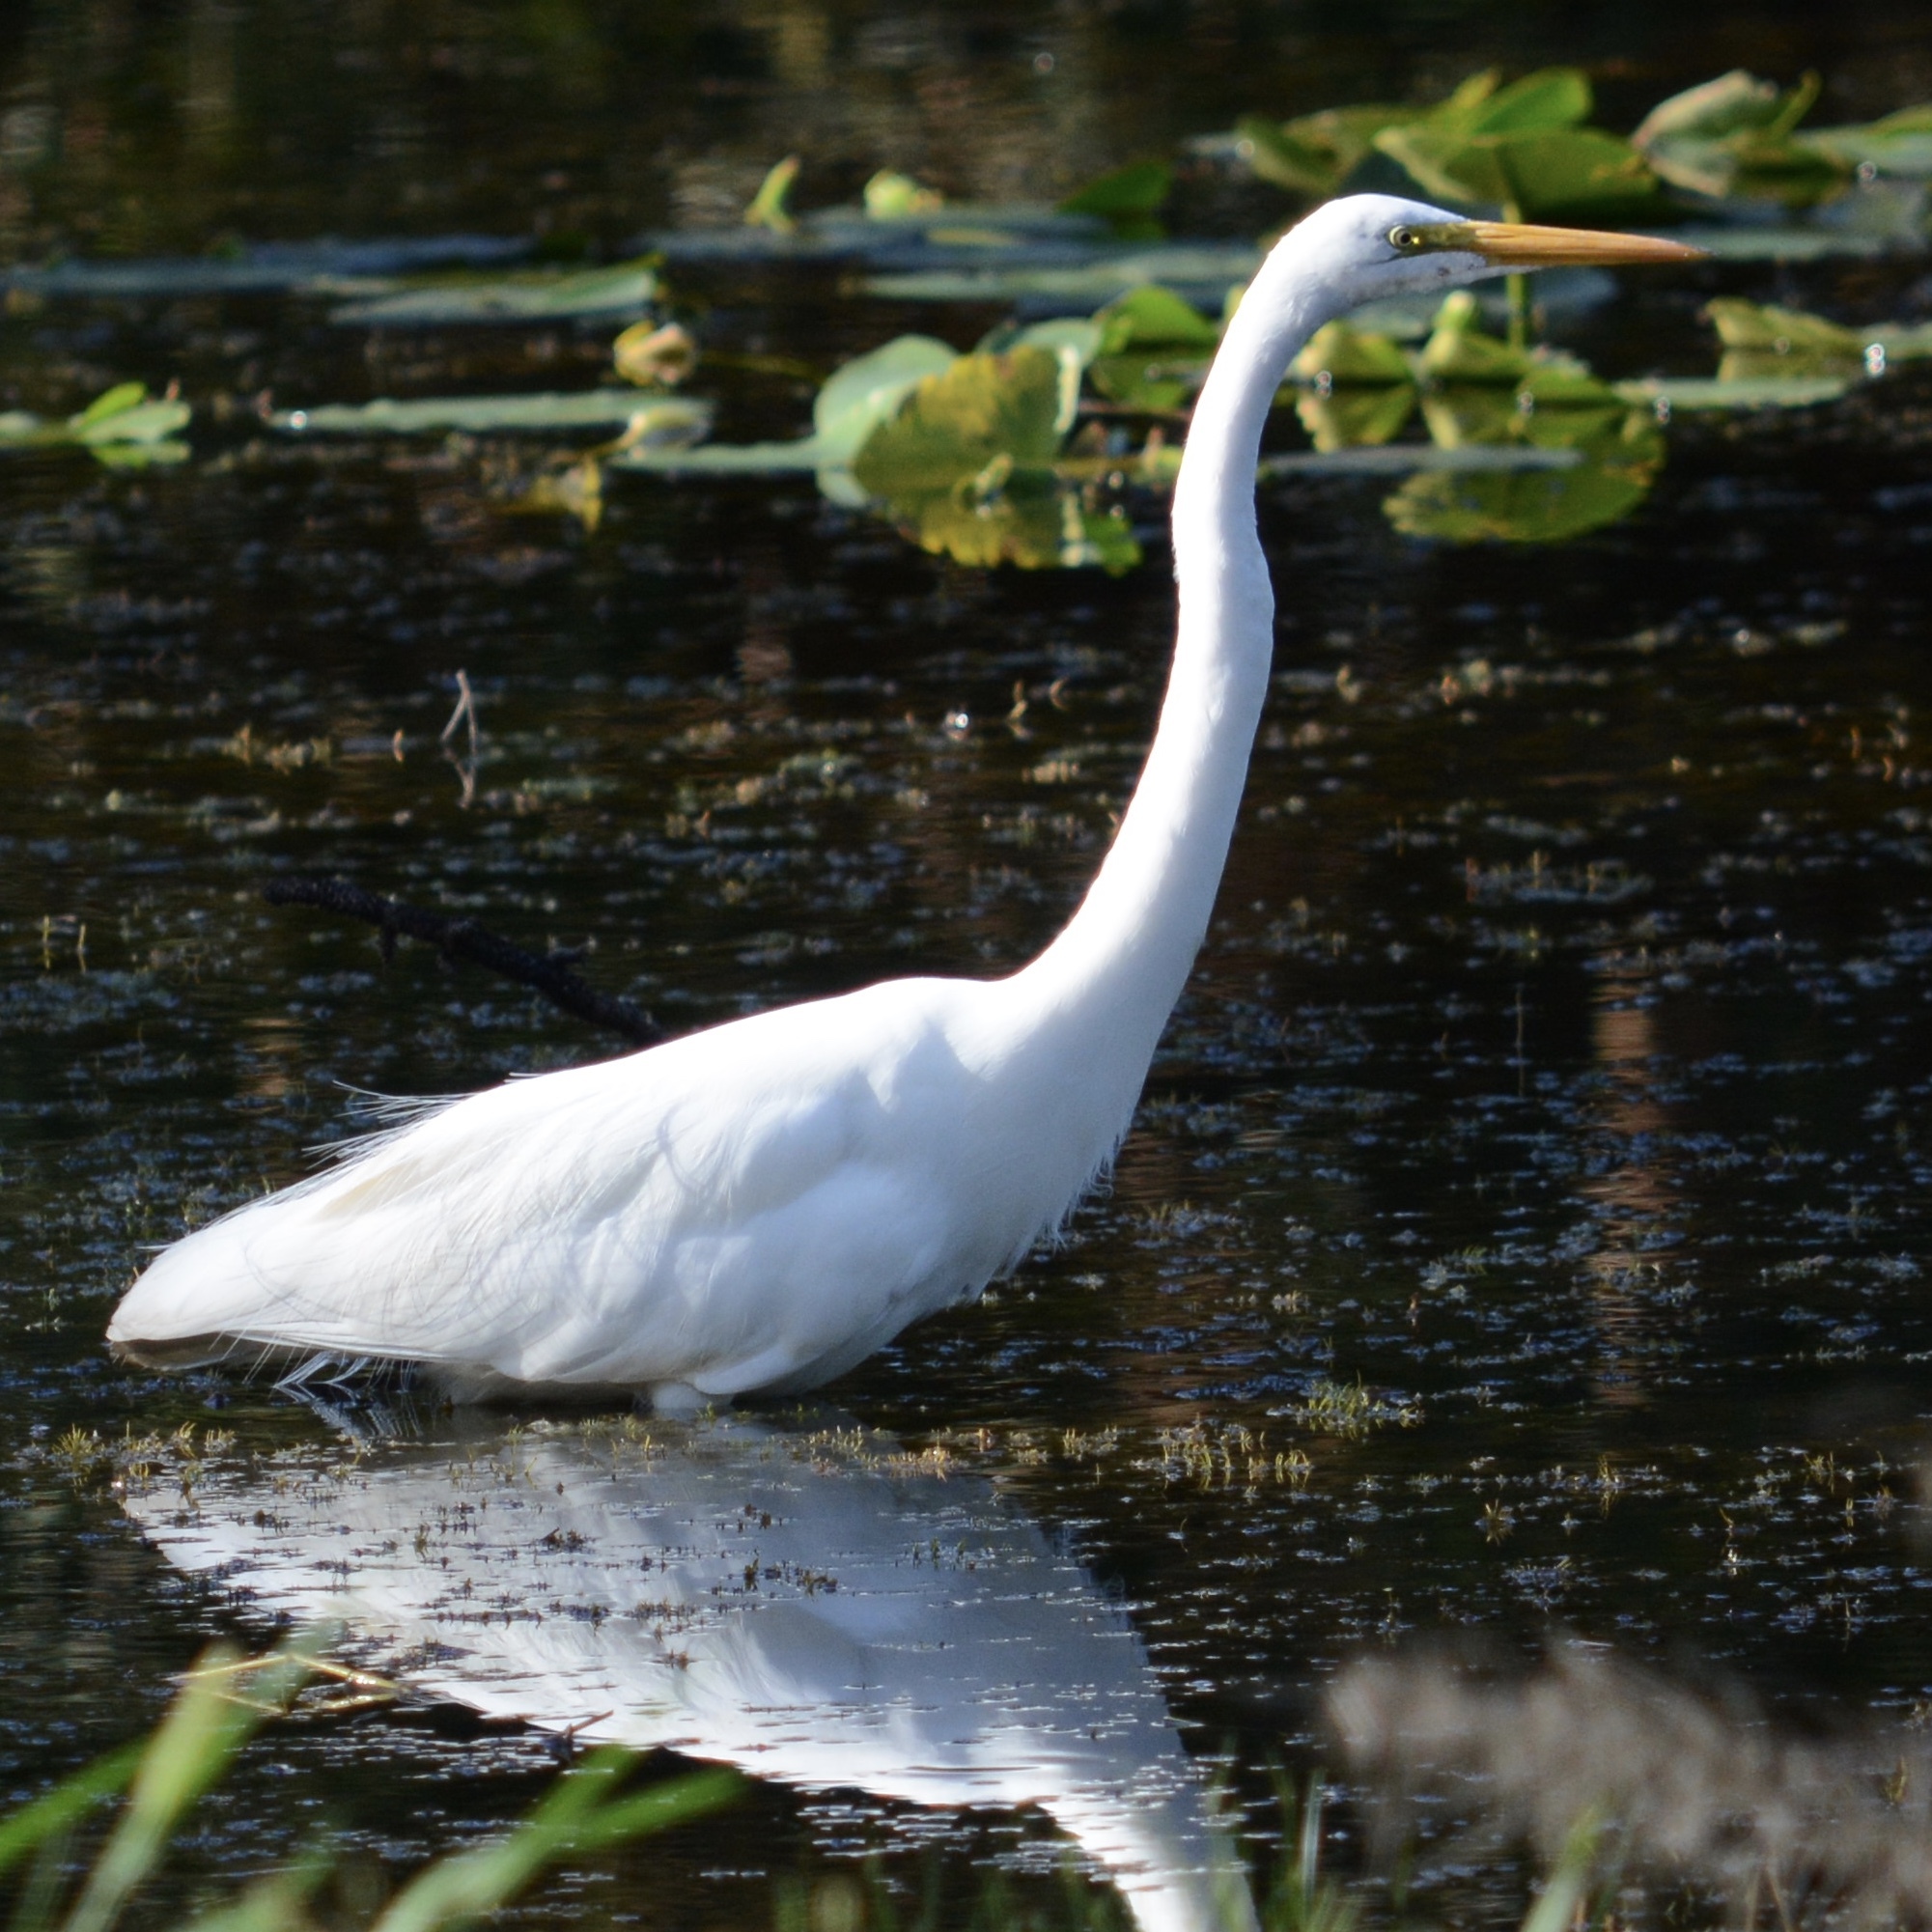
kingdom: Animalia
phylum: Chordata
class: Aves
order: Pelecaniformes
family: Ardeidae
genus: Ardea
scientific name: Ardea alba
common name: Great egret
